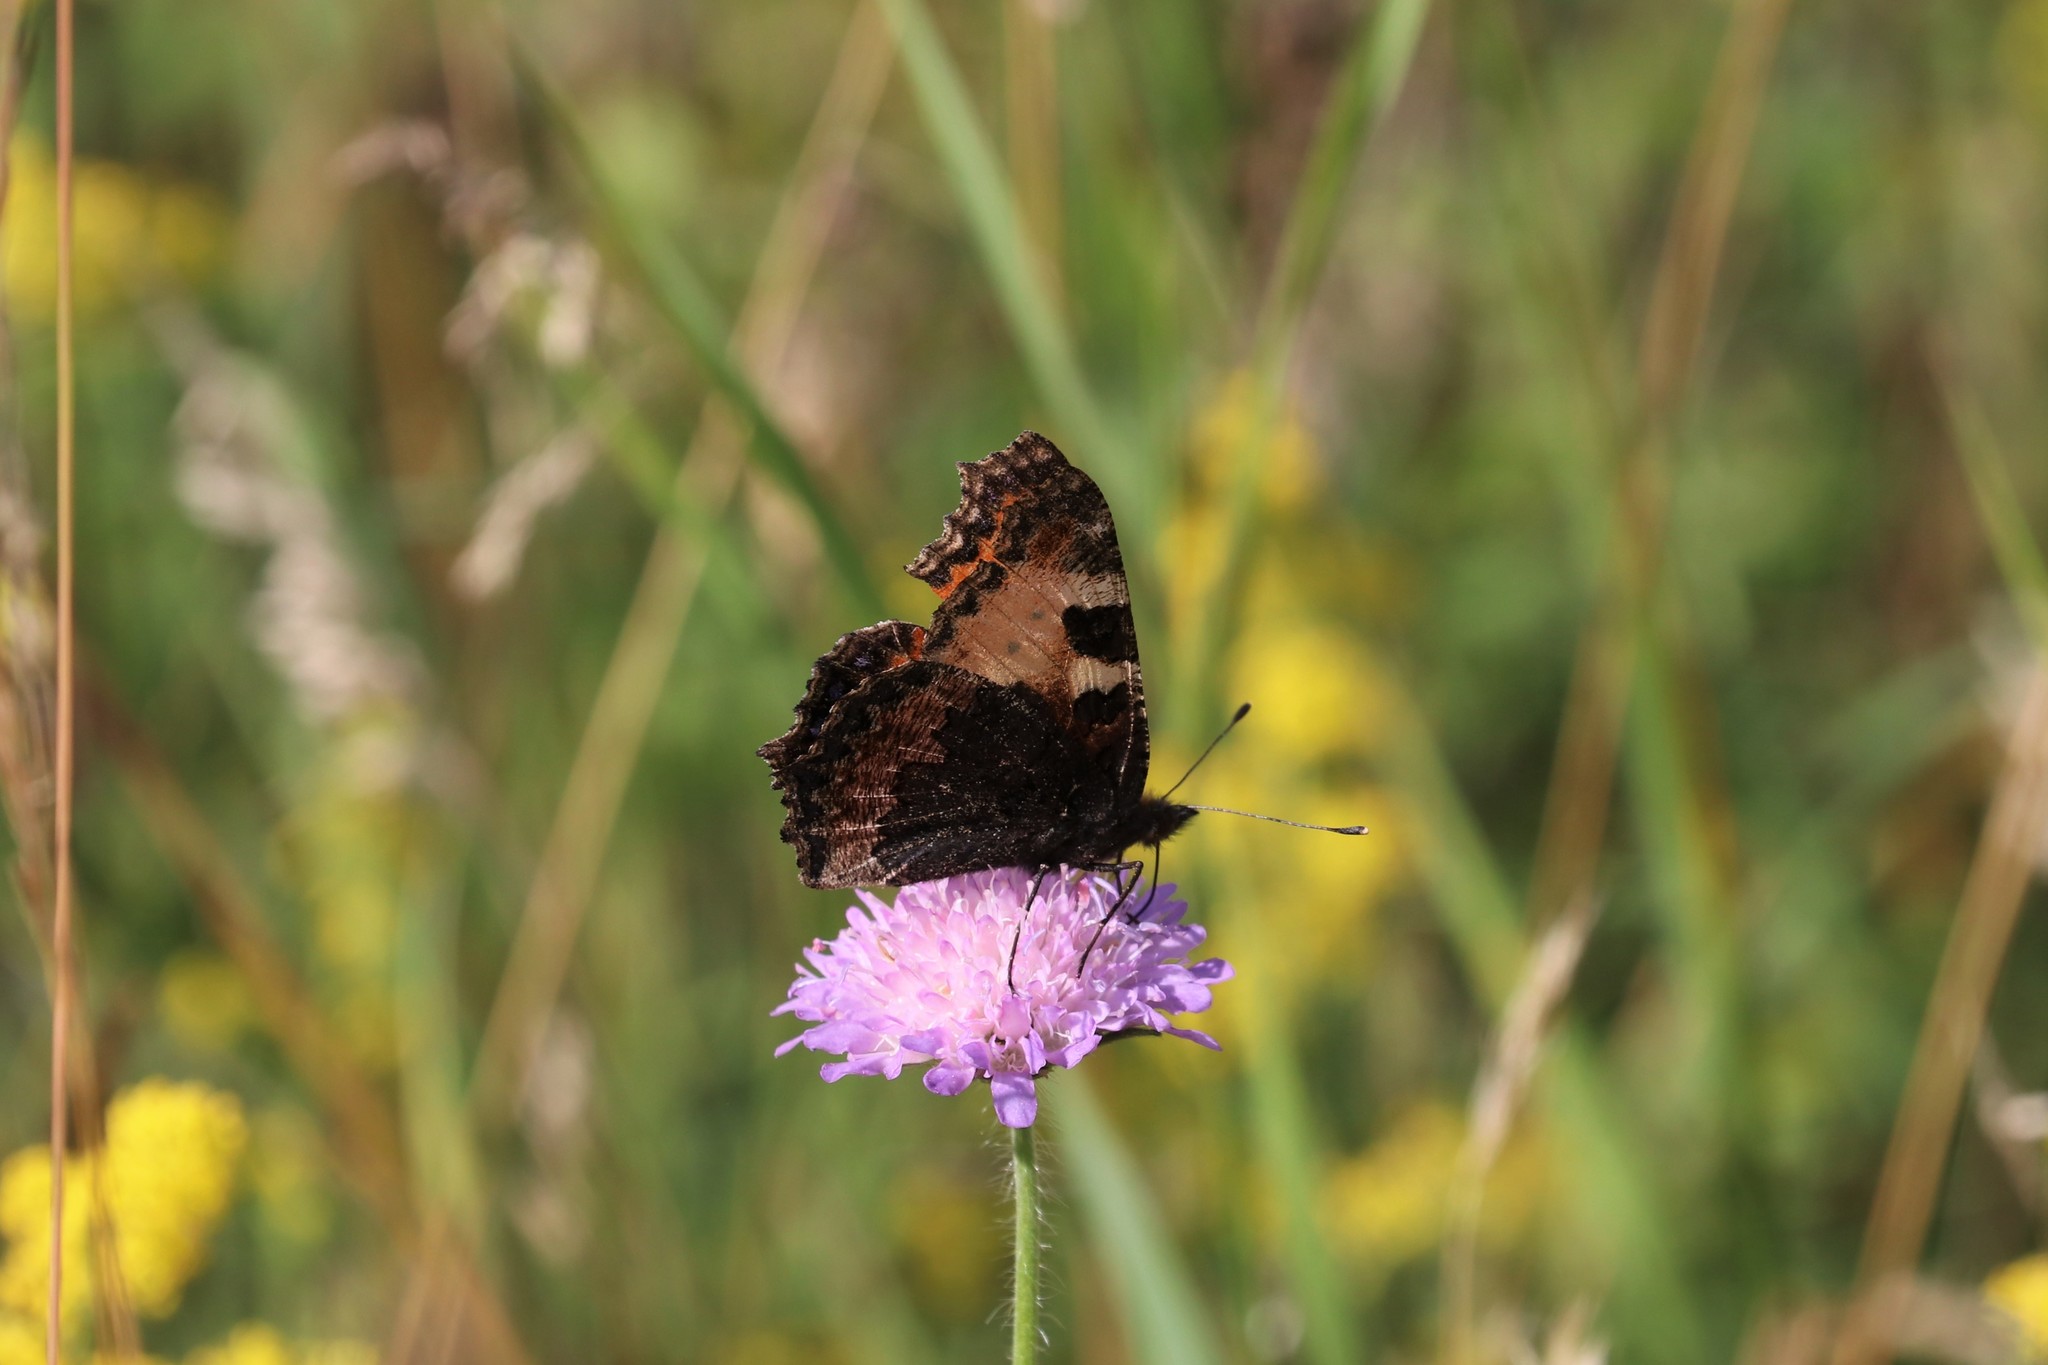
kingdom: Animalia
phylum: Arthropoda
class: Insecta
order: Lepidoptera
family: Nymphalidae
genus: Aglais
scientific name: Aglais urticae
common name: Small tortoiseshell
